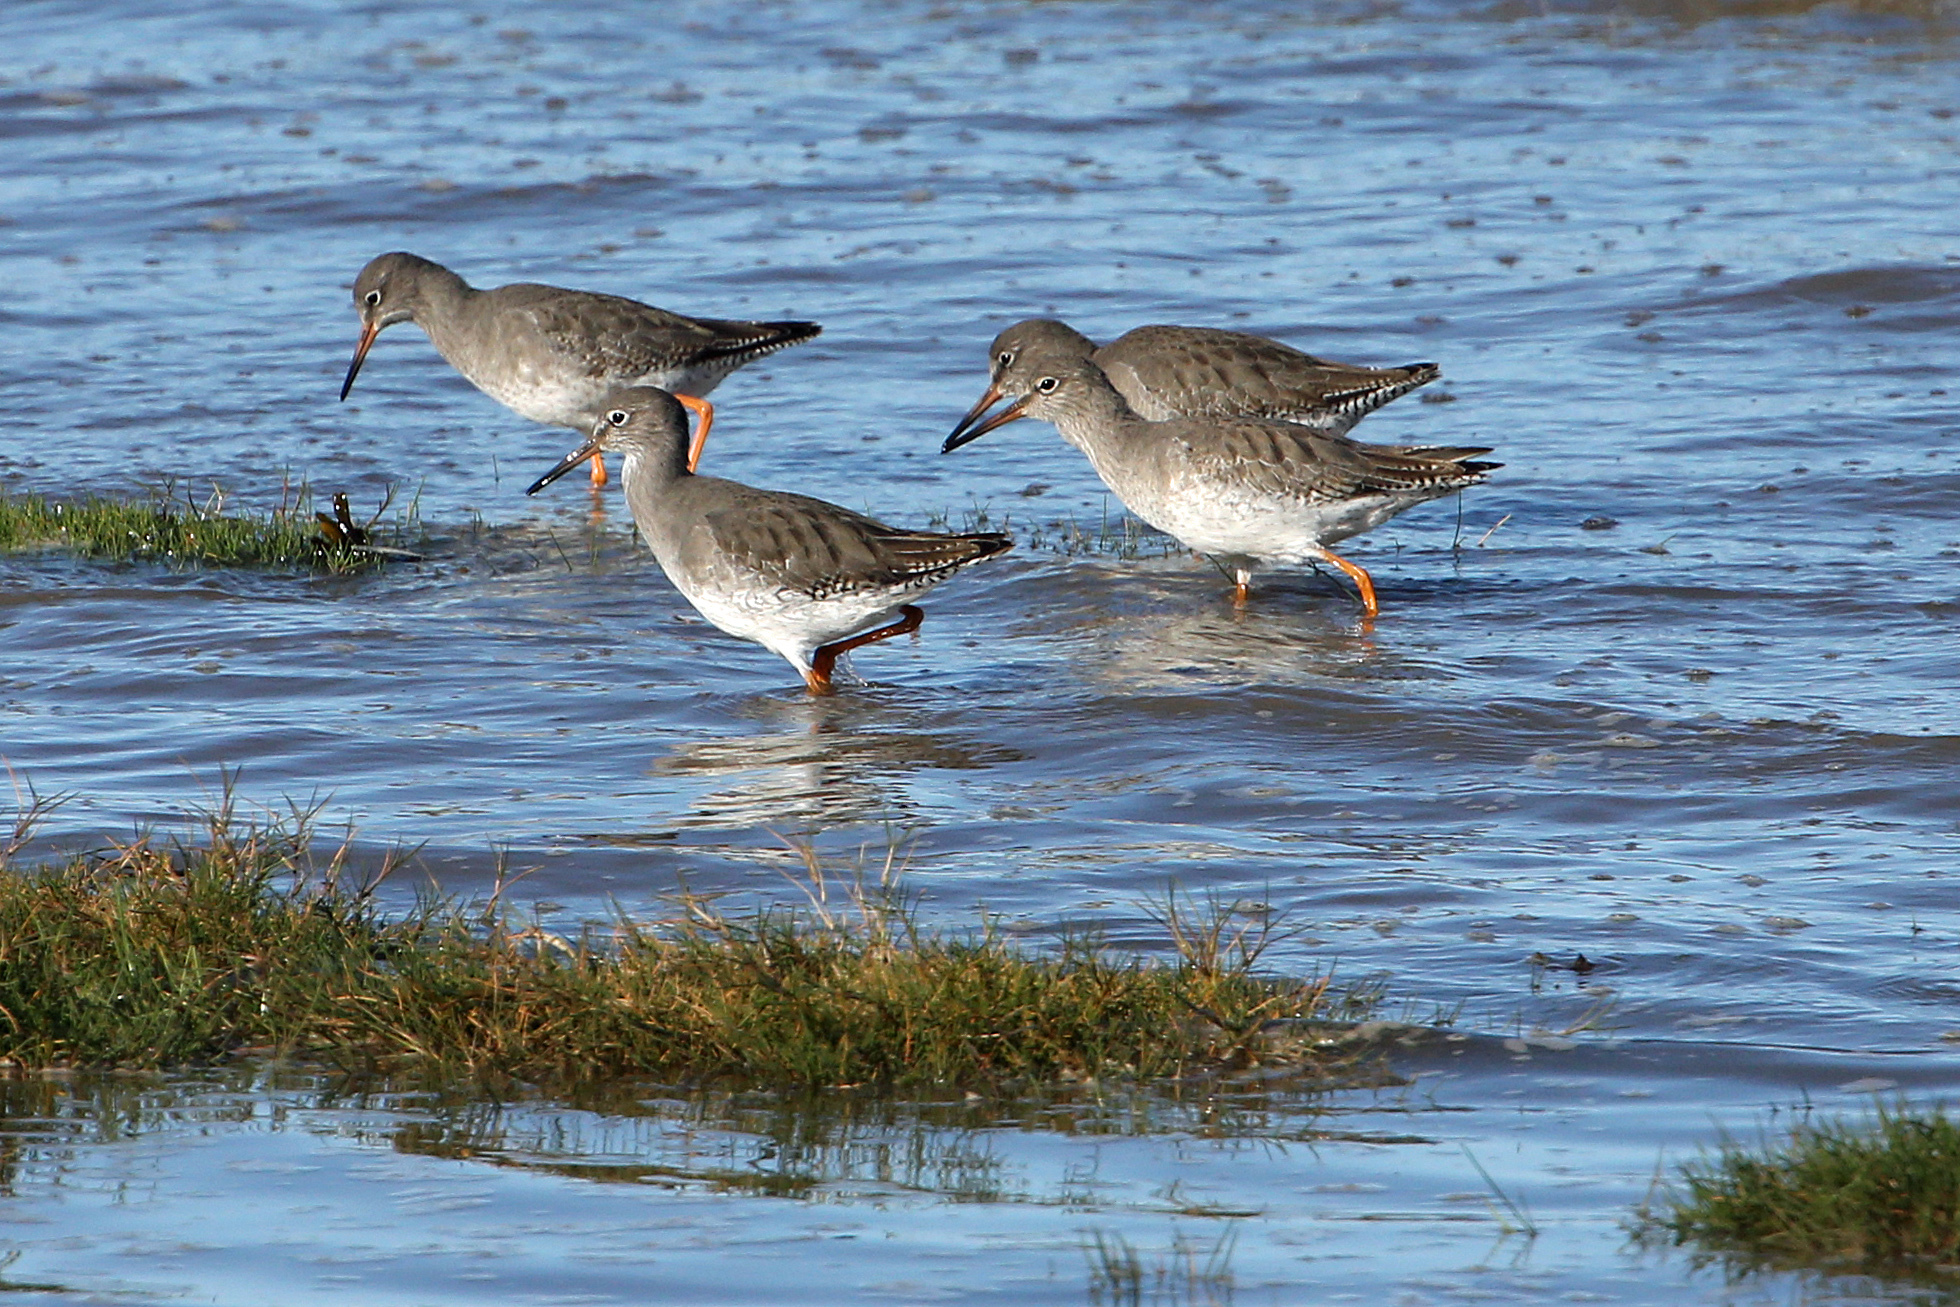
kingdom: Animalia
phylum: Chordata
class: Aves
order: Charadriiformes
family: Scolopacidae
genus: Tringa
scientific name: Tringa totanus
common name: Common redshank
